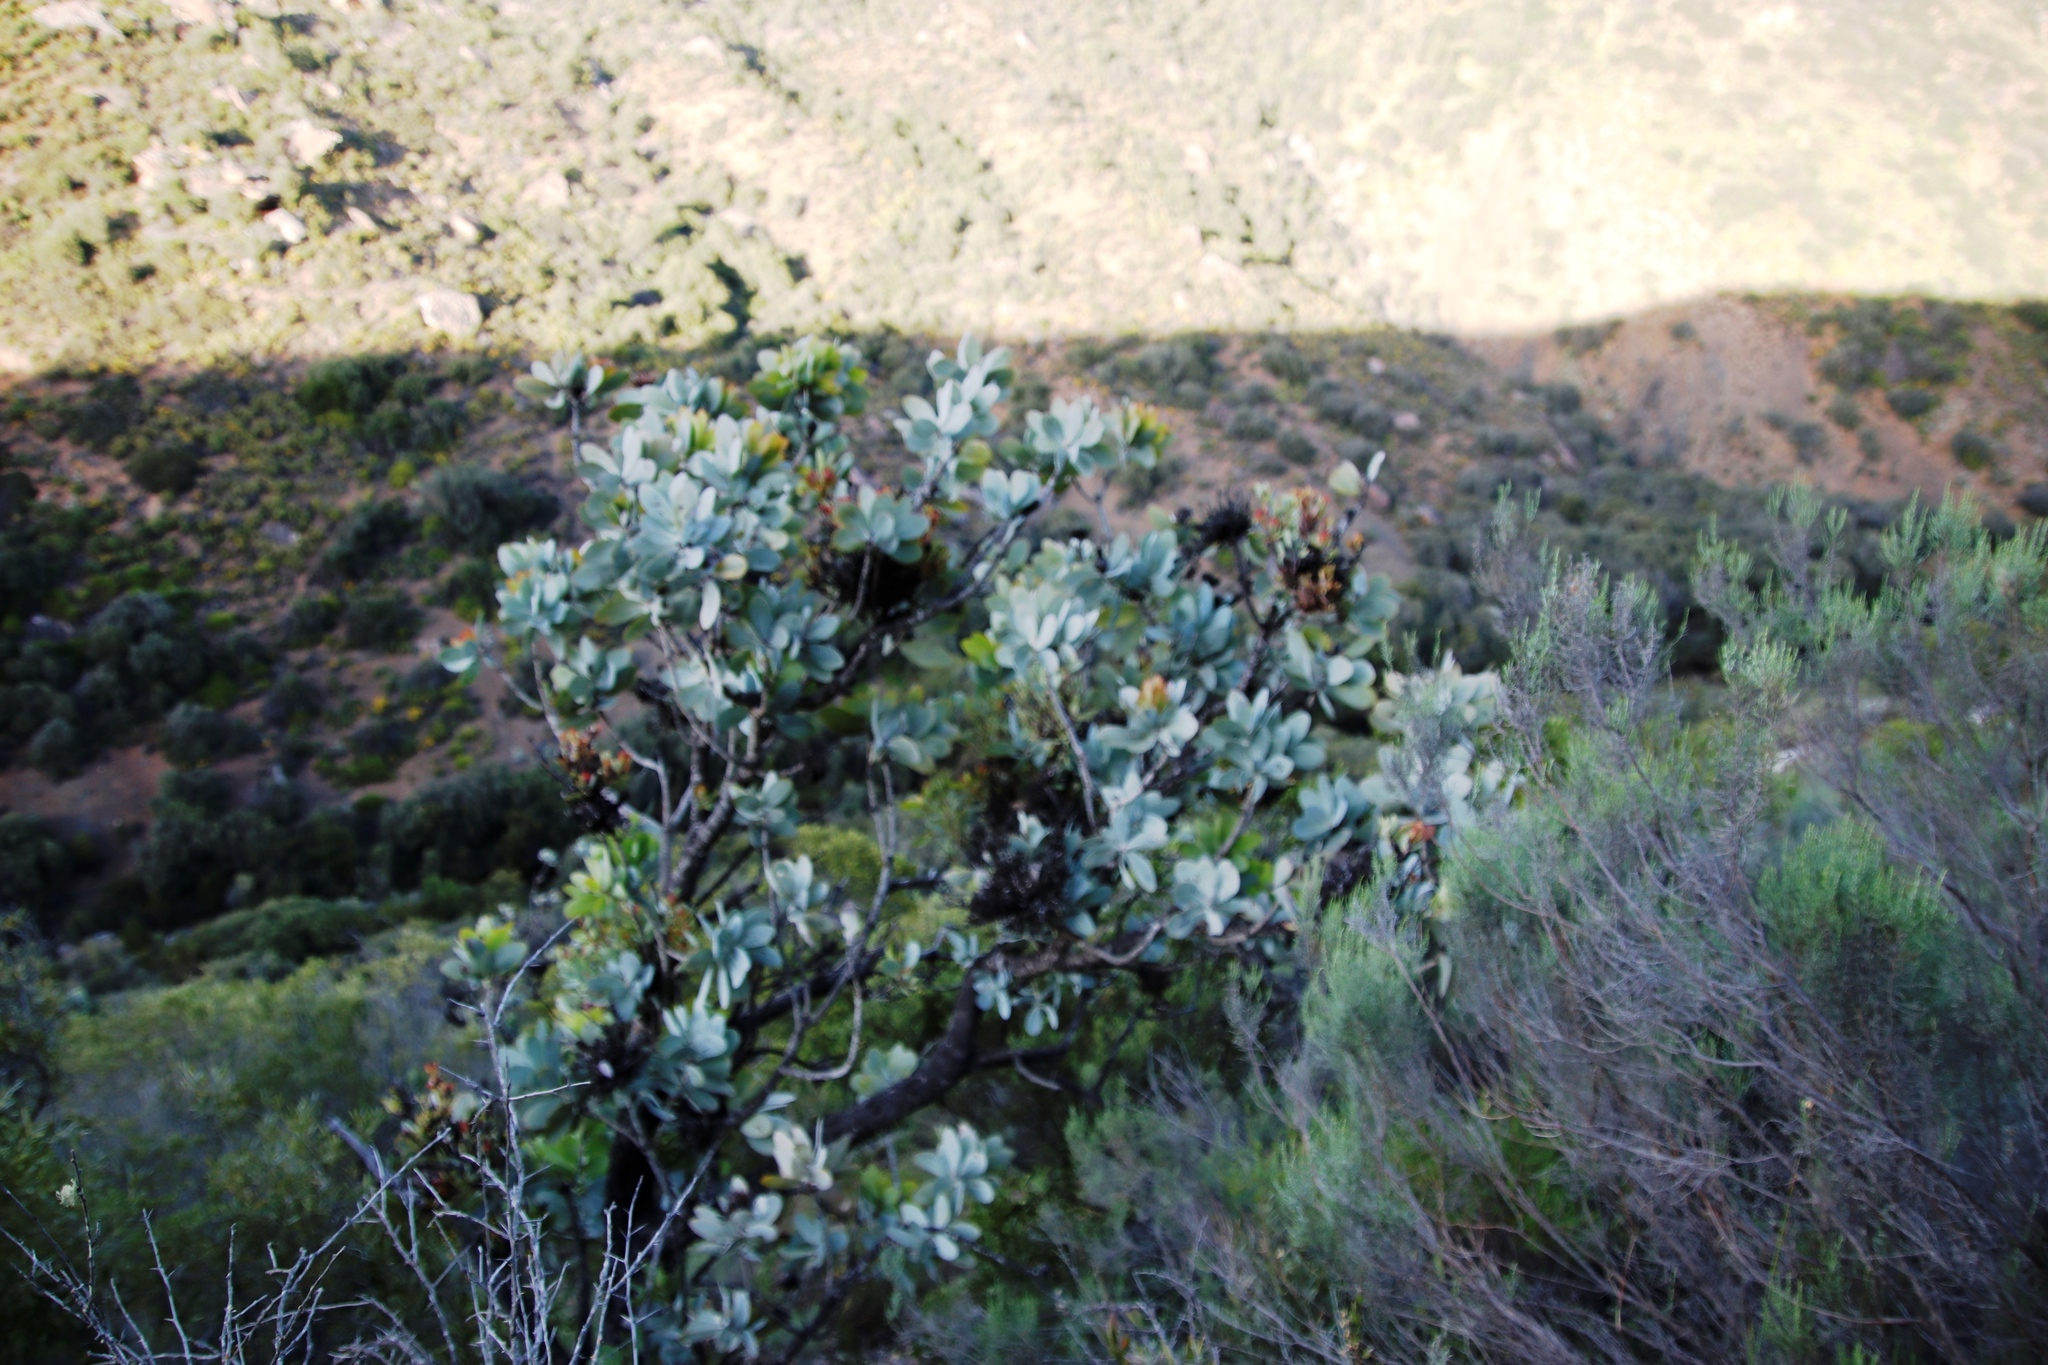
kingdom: Plantae
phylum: Tracheophyta
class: Magnoliopsida
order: Proteales
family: Proteaceae
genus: Protea
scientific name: Protea nitida
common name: Tree protea
